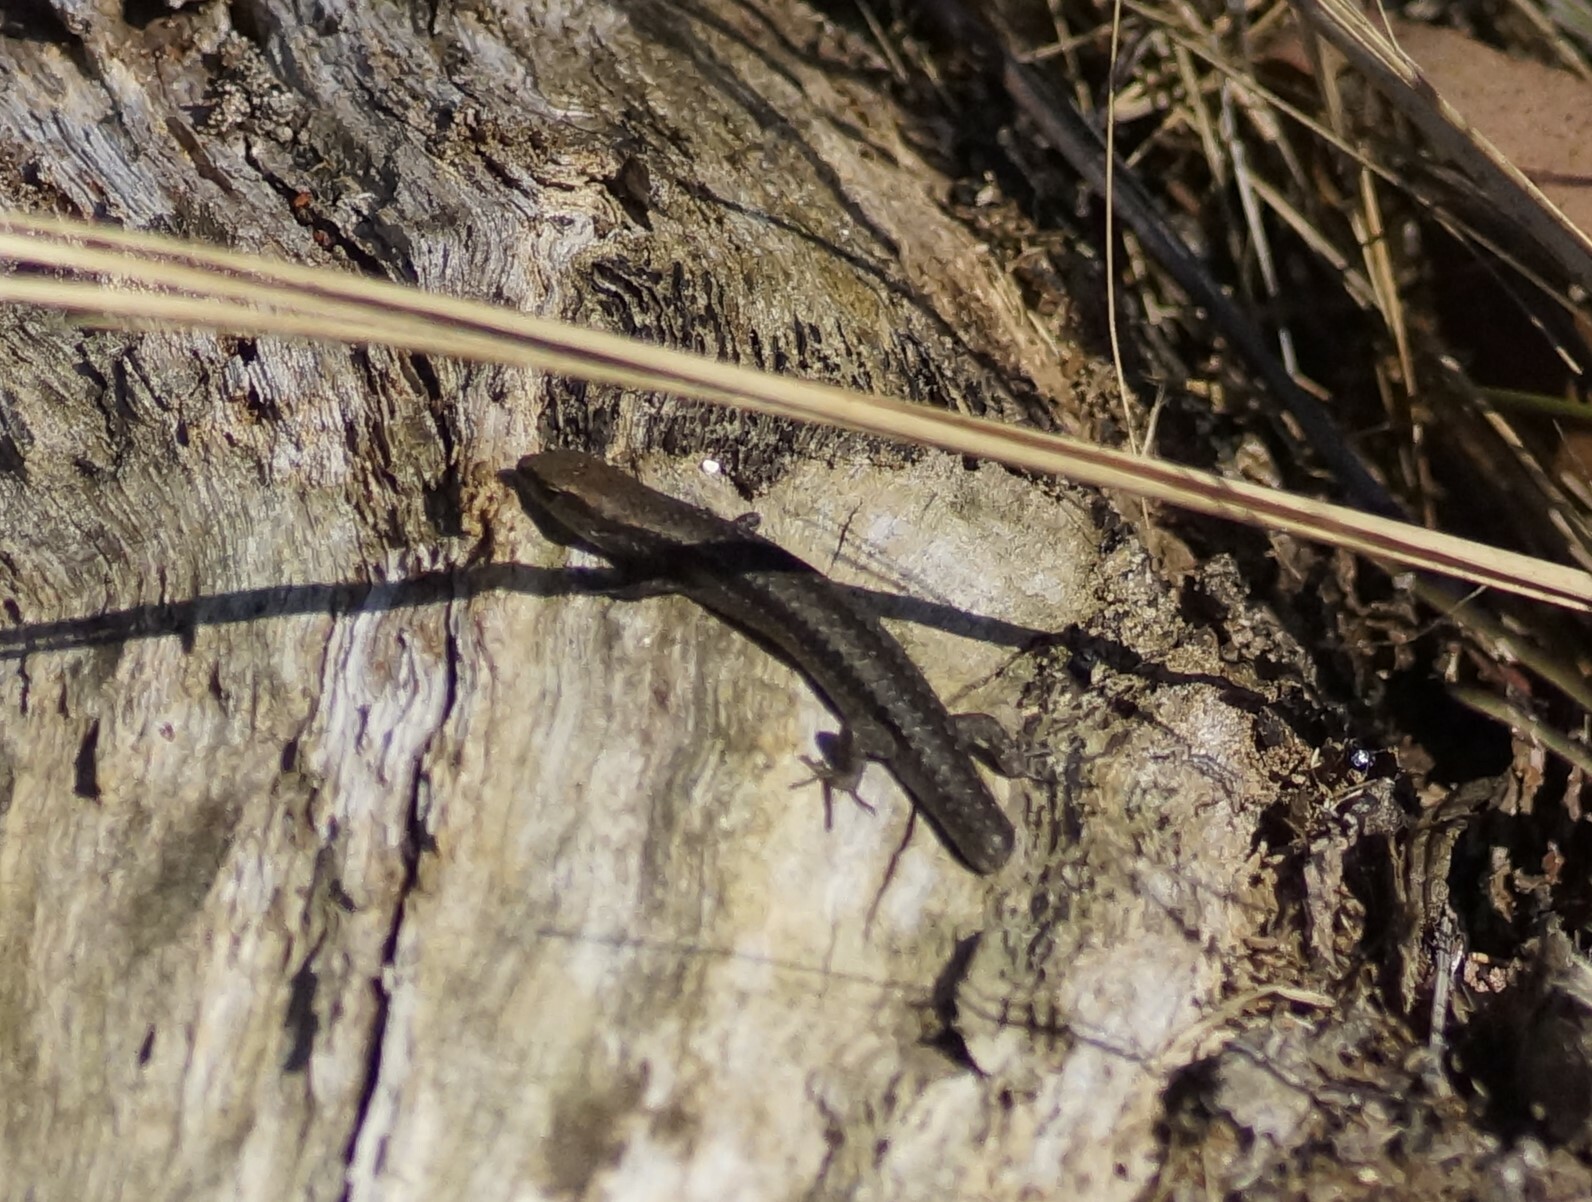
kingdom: Animalia
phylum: Chordata
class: Squamata
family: Scincidae
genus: Lampropholis
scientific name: Lampropholis guichenoti
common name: Garden skink
